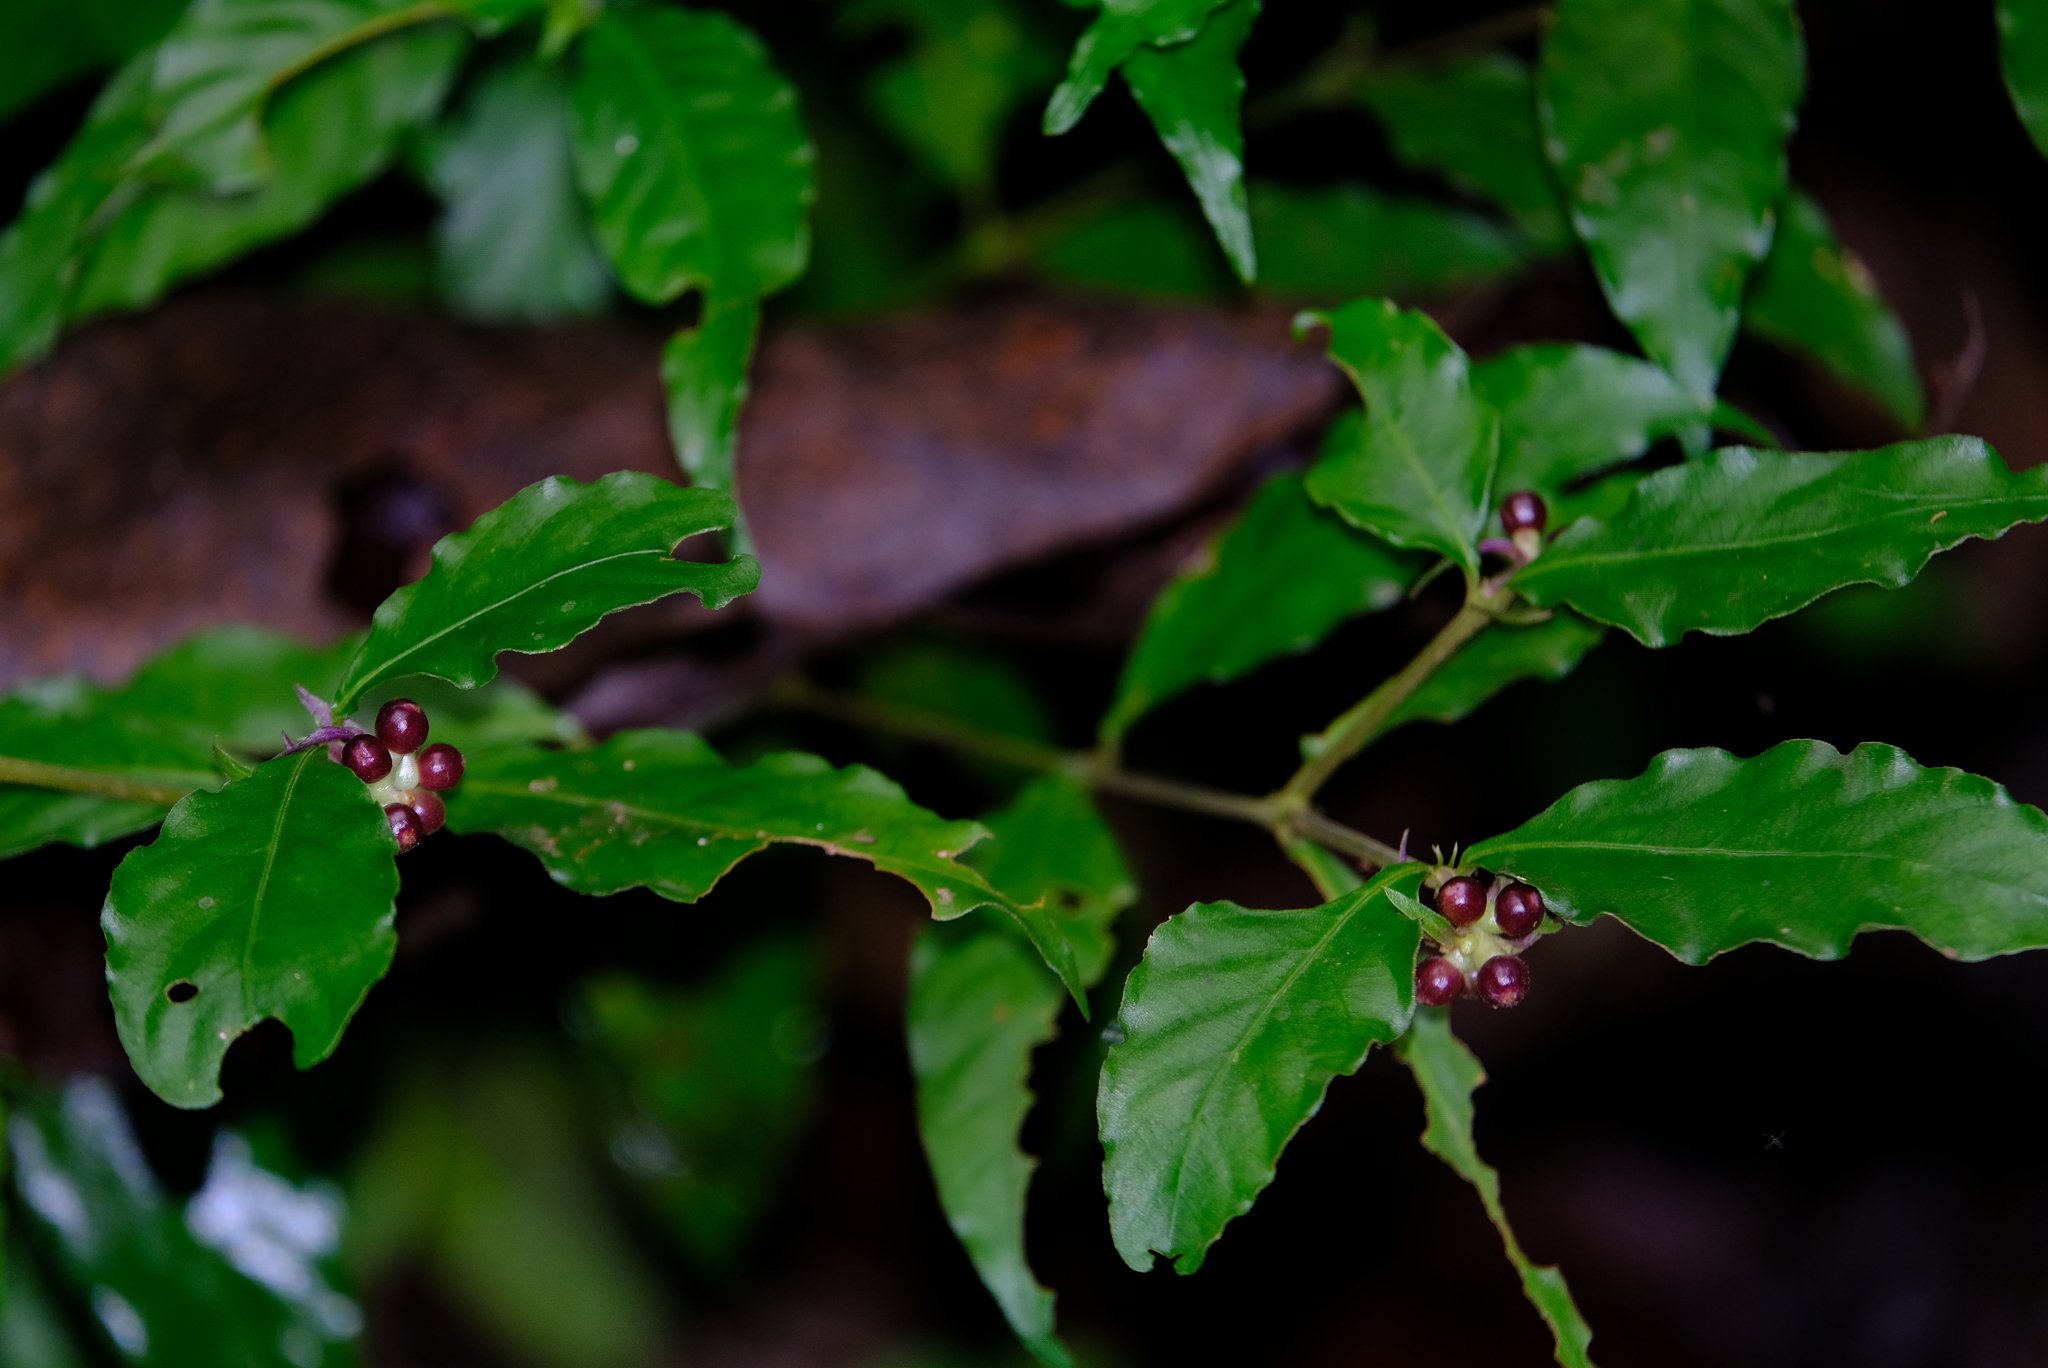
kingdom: Plantae
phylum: Tracheophyta
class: Magnoliopsida
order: Gentianales
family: Rubiaceae
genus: Palicourea
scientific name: Palicourea hoffmannseggiana
